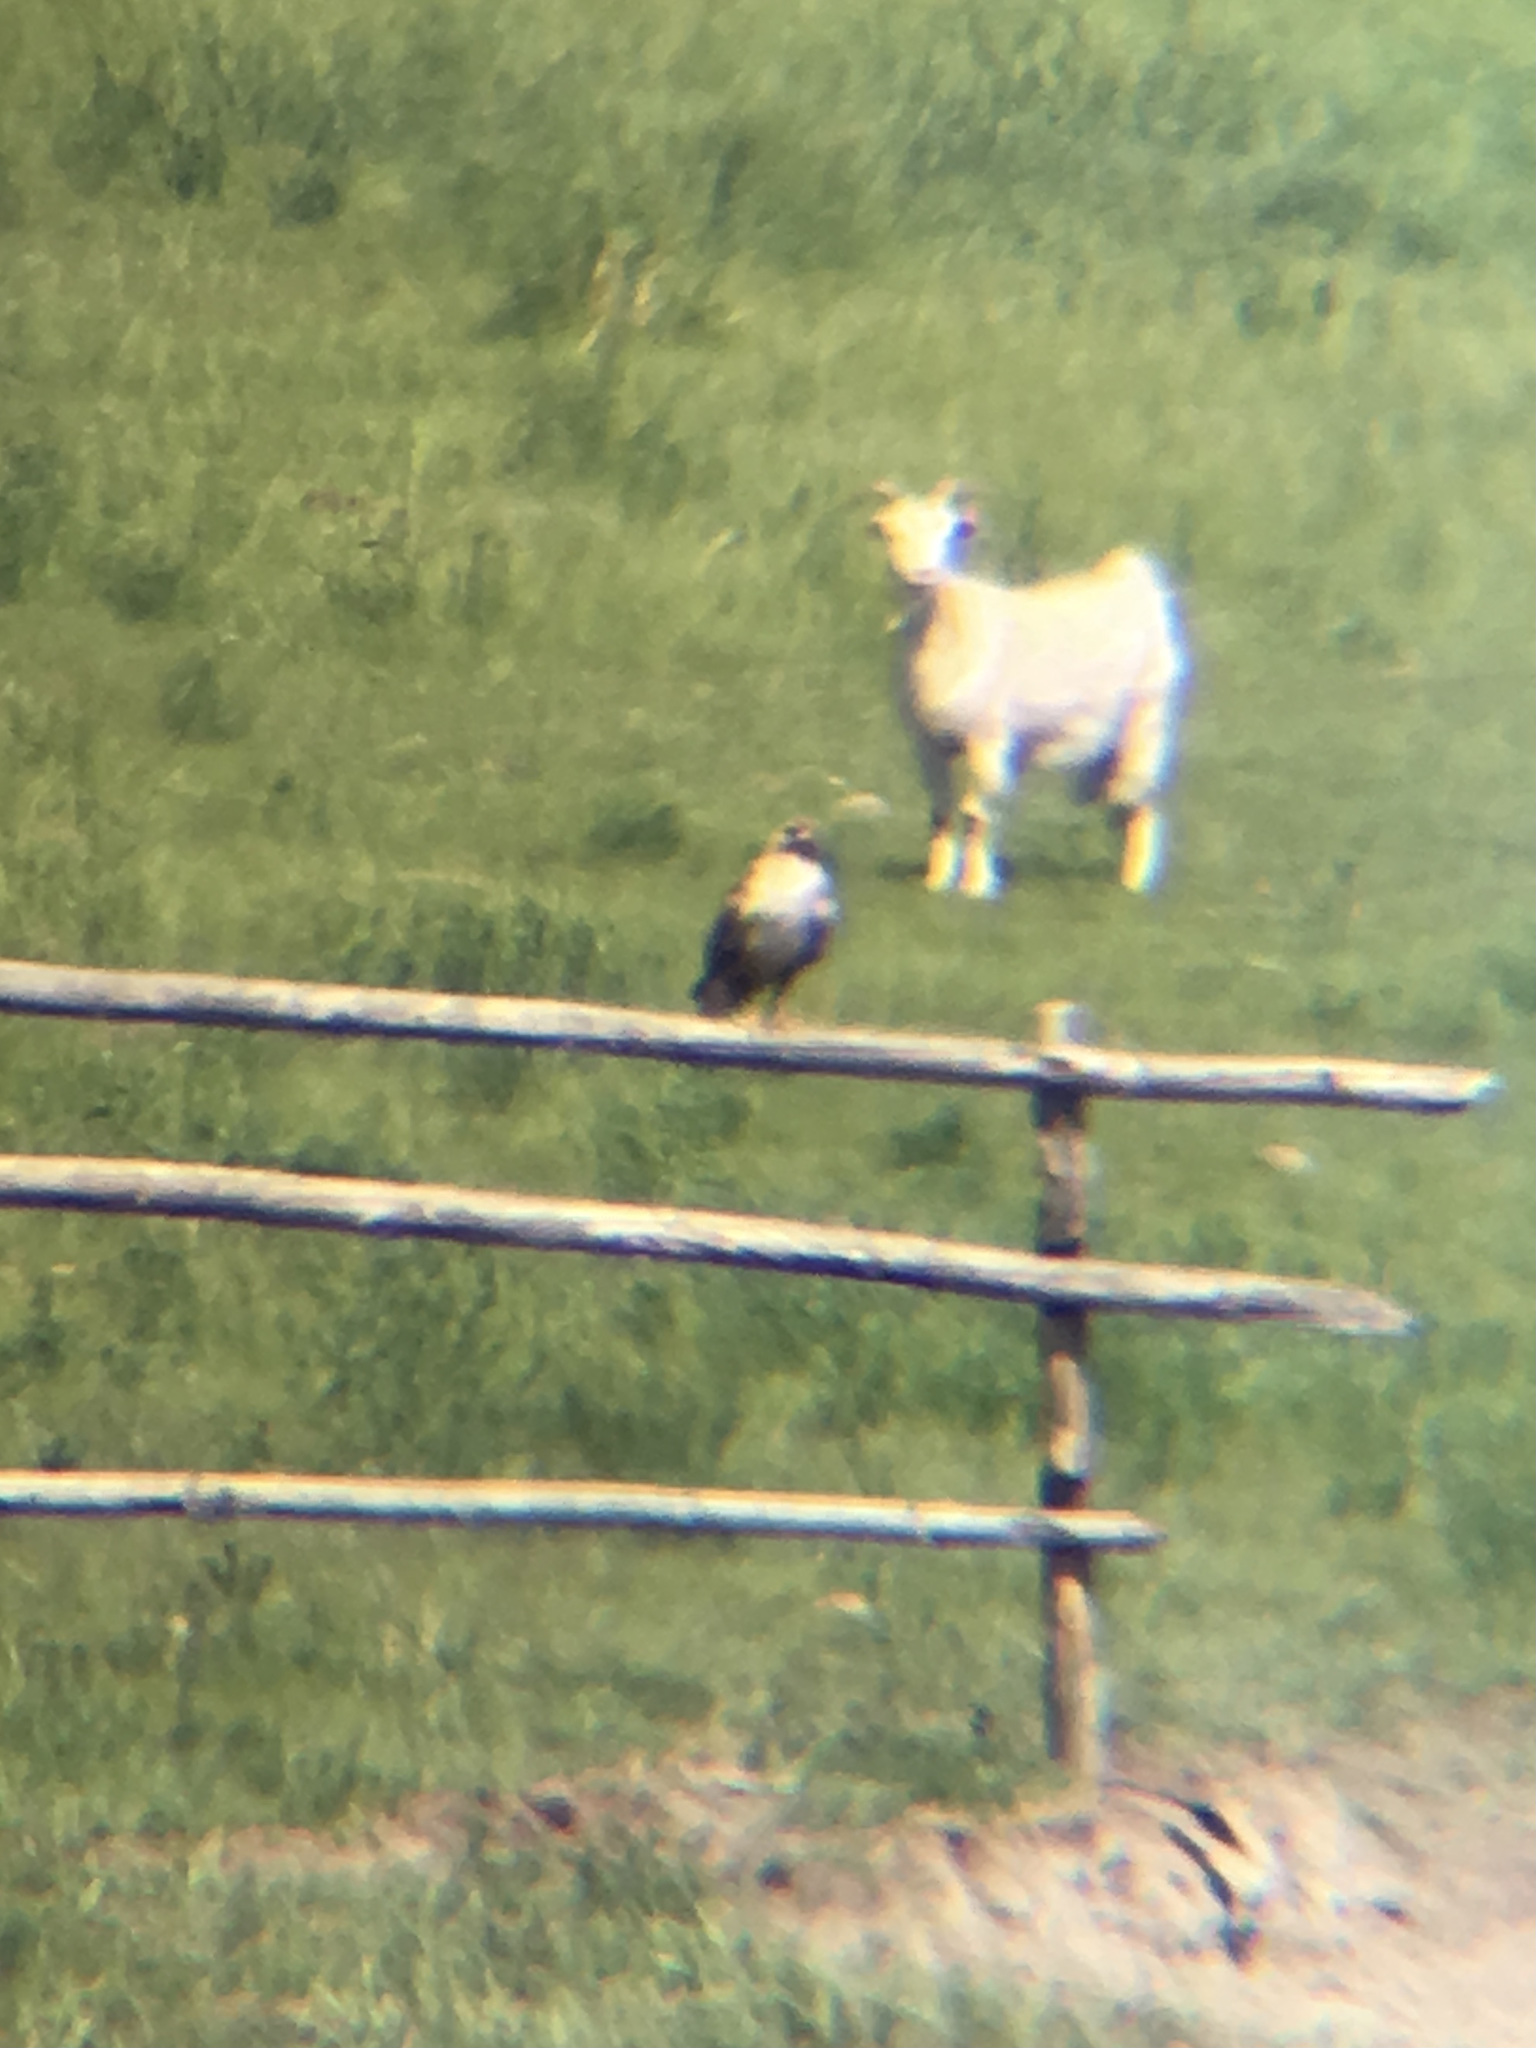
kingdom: Animalia
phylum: Chordata
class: Aves
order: Accipitriformes
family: Accipitridae
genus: Buteo
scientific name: Buteo hemilasius
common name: Upland buzzard
